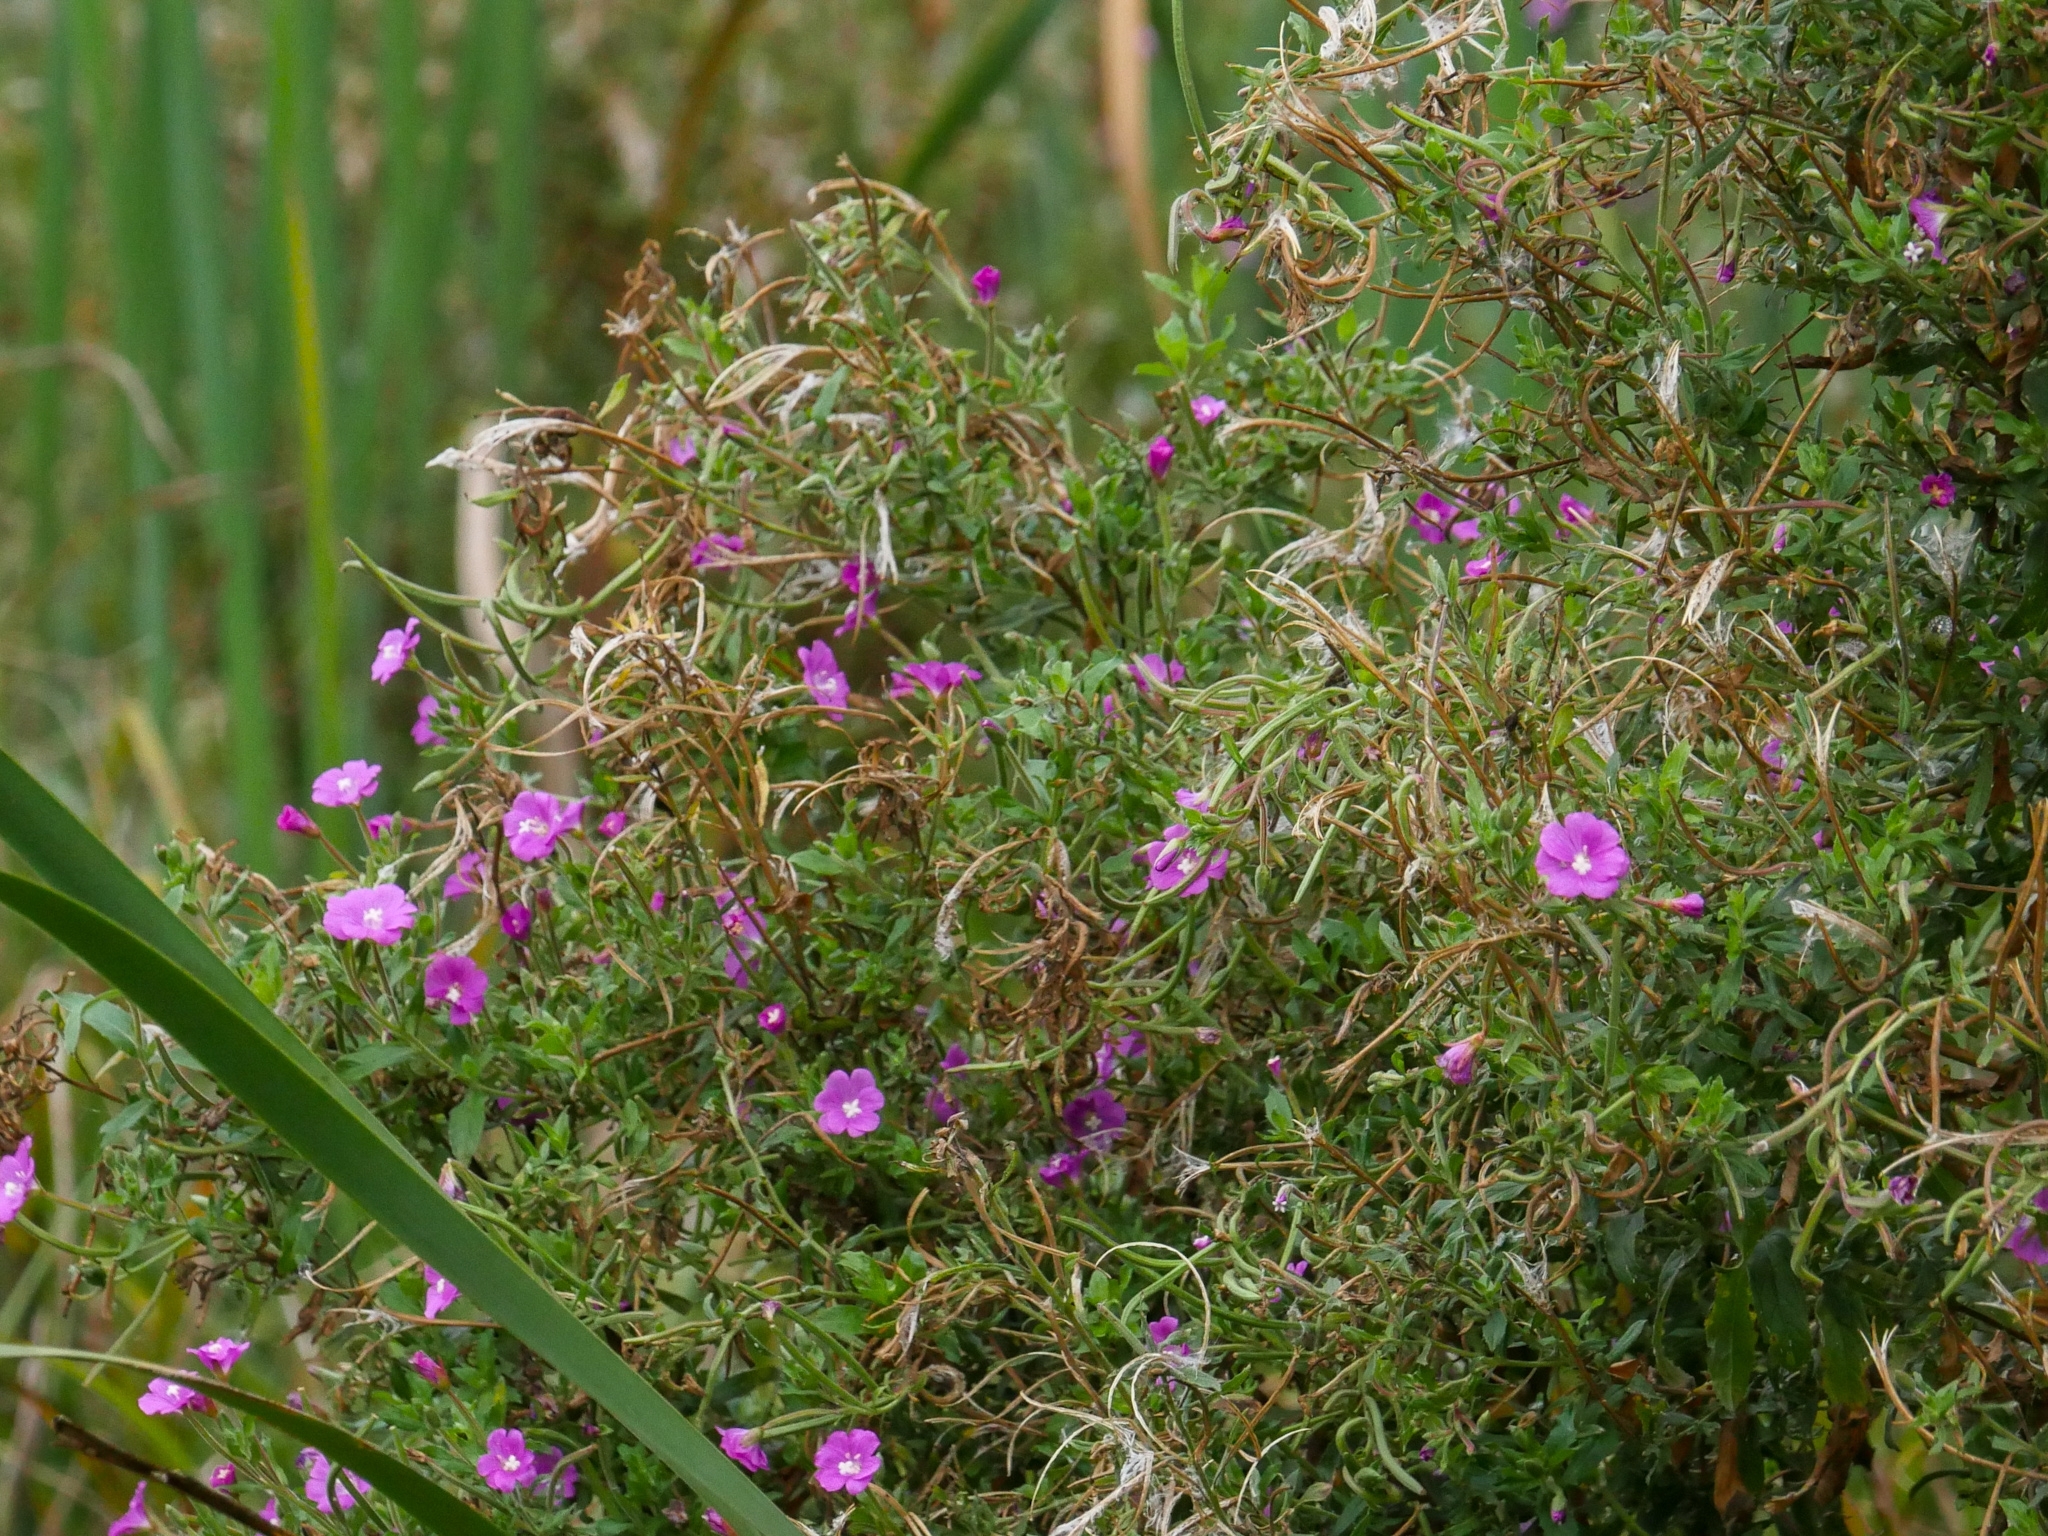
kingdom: Plantae
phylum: Tracheophyta
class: Magnoliopsida
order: Myrtales
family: Onagraceae
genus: Epilobium
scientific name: Epilobium hirsutum
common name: Great willowherb
